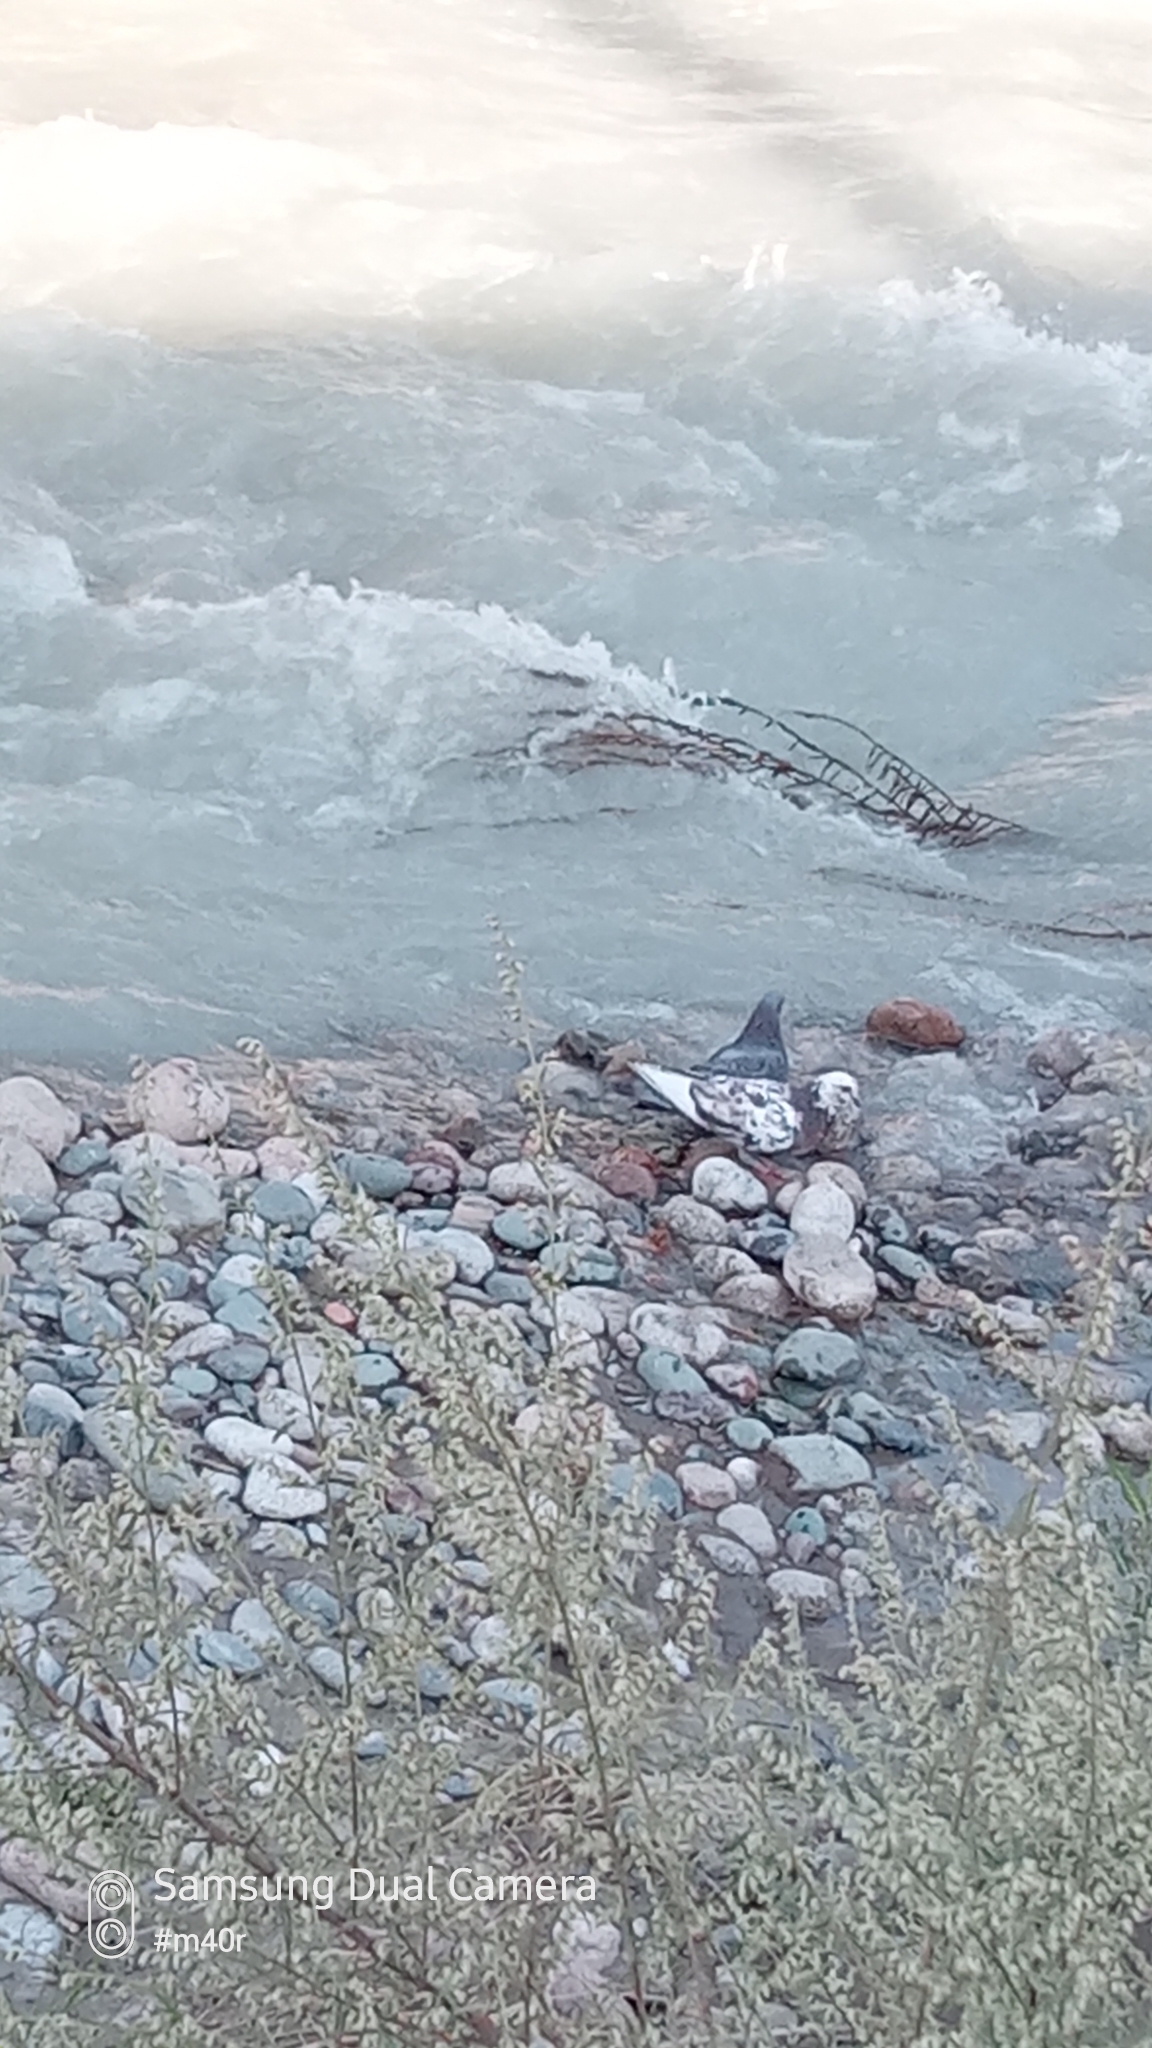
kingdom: Animalia
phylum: Chordata
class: Aves
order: Columbiformes
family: Columbidae
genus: Columba
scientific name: Columba livia
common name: Rock pigeon
